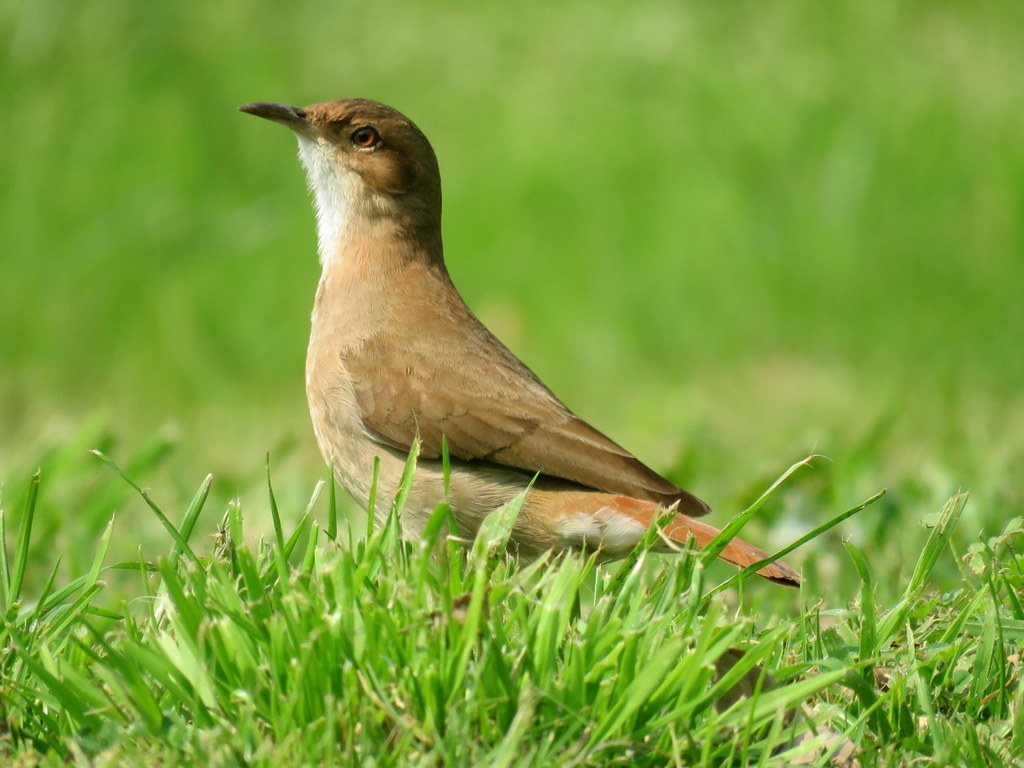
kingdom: Animalia
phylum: Chordata
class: Aves
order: Passeriformes
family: Furnariidae
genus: Furnarius
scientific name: Furnarius rufus
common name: Rufous hornero
